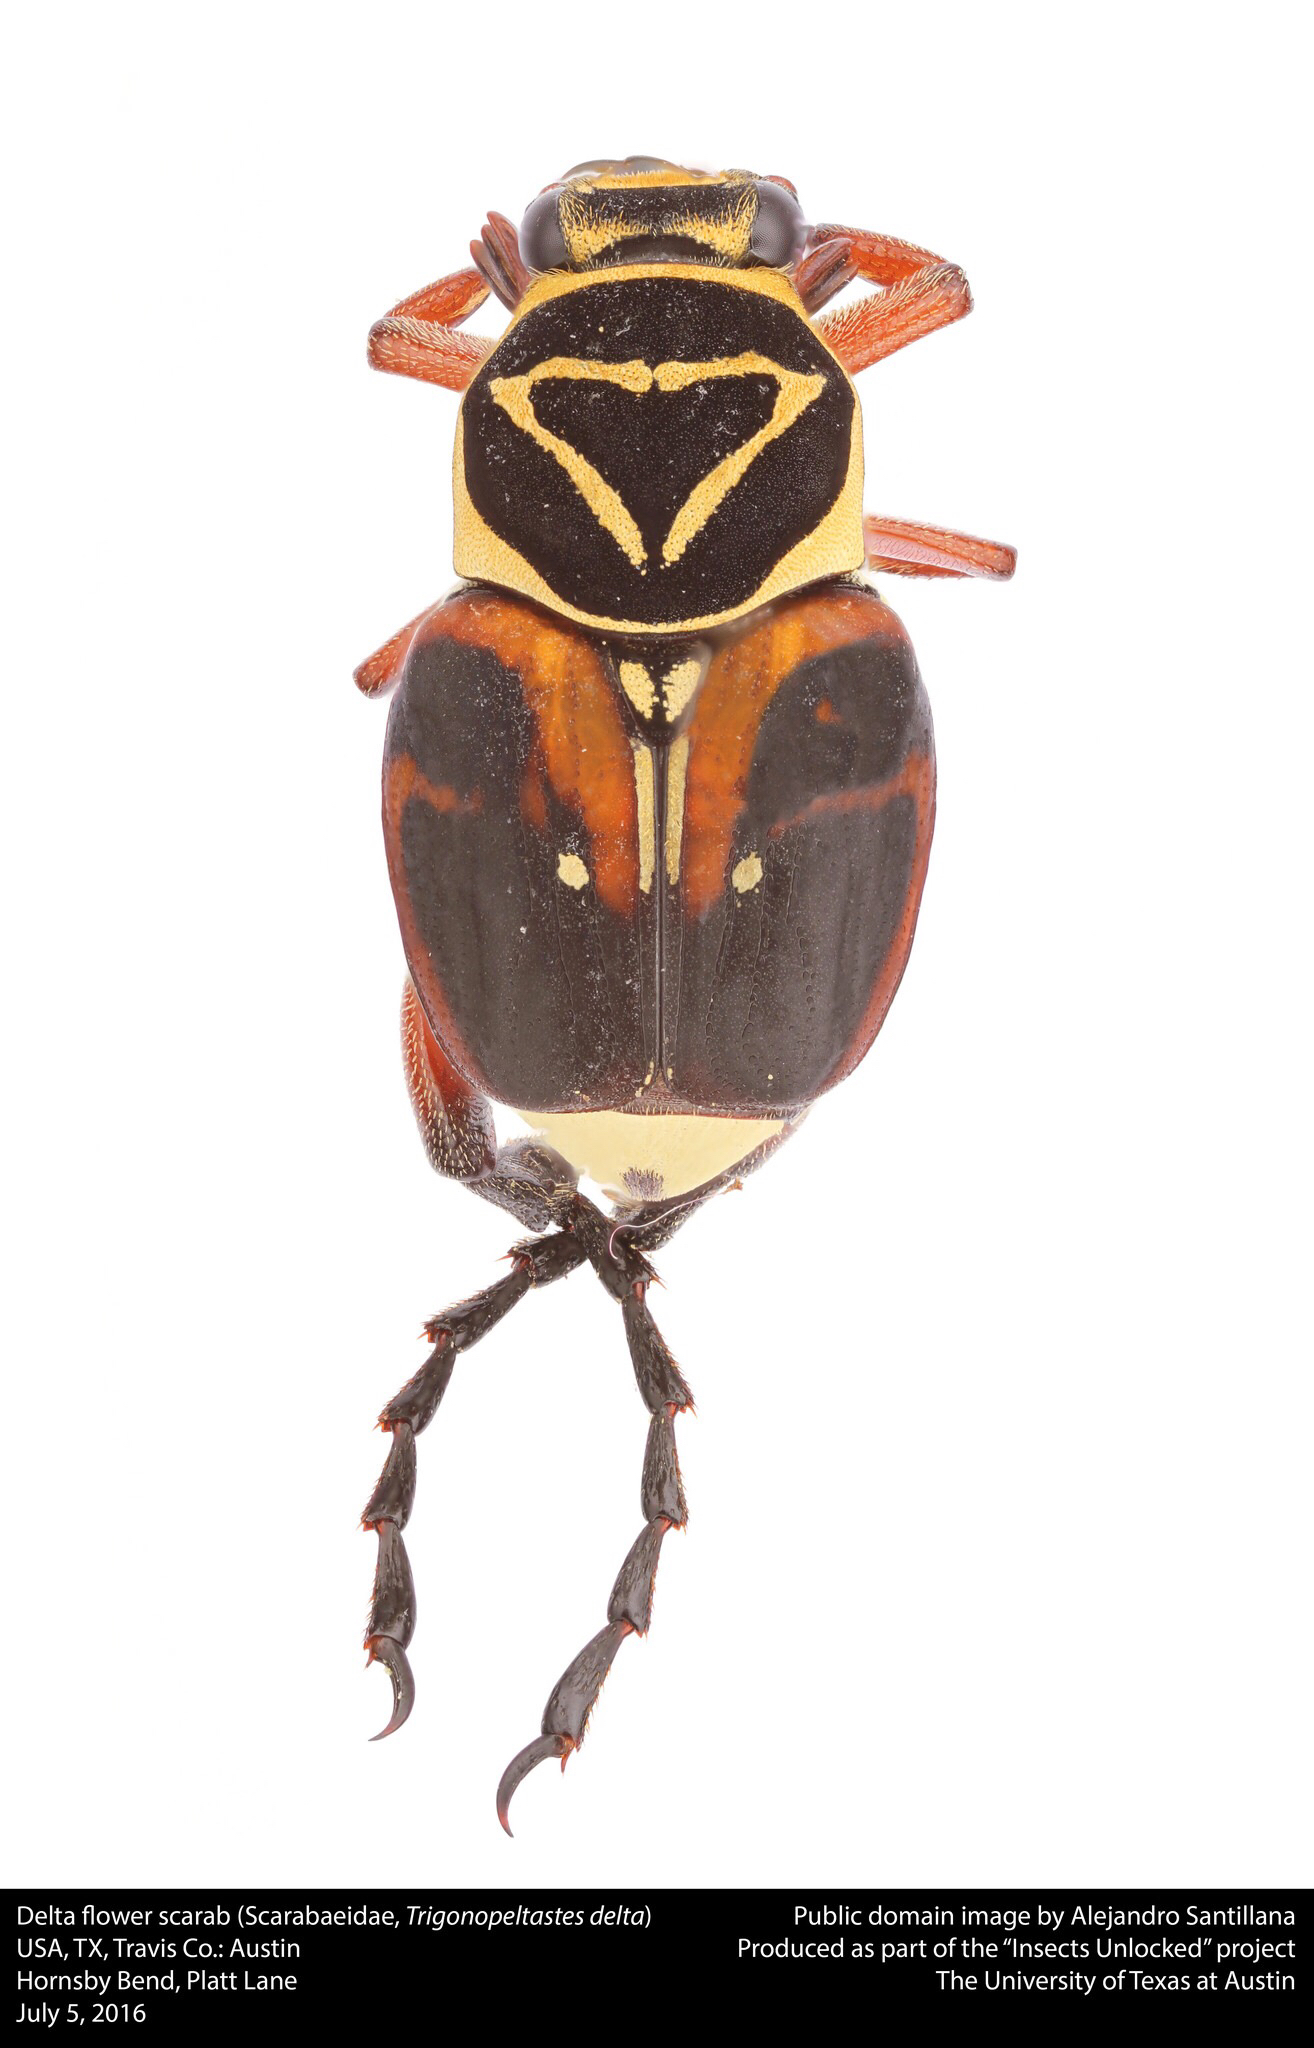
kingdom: Animalia
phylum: Arthropoda
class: Insecta
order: Coleoptera
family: Scarabaeidae
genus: Trigonopeltastes
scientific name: Trigonopeltastes delta
